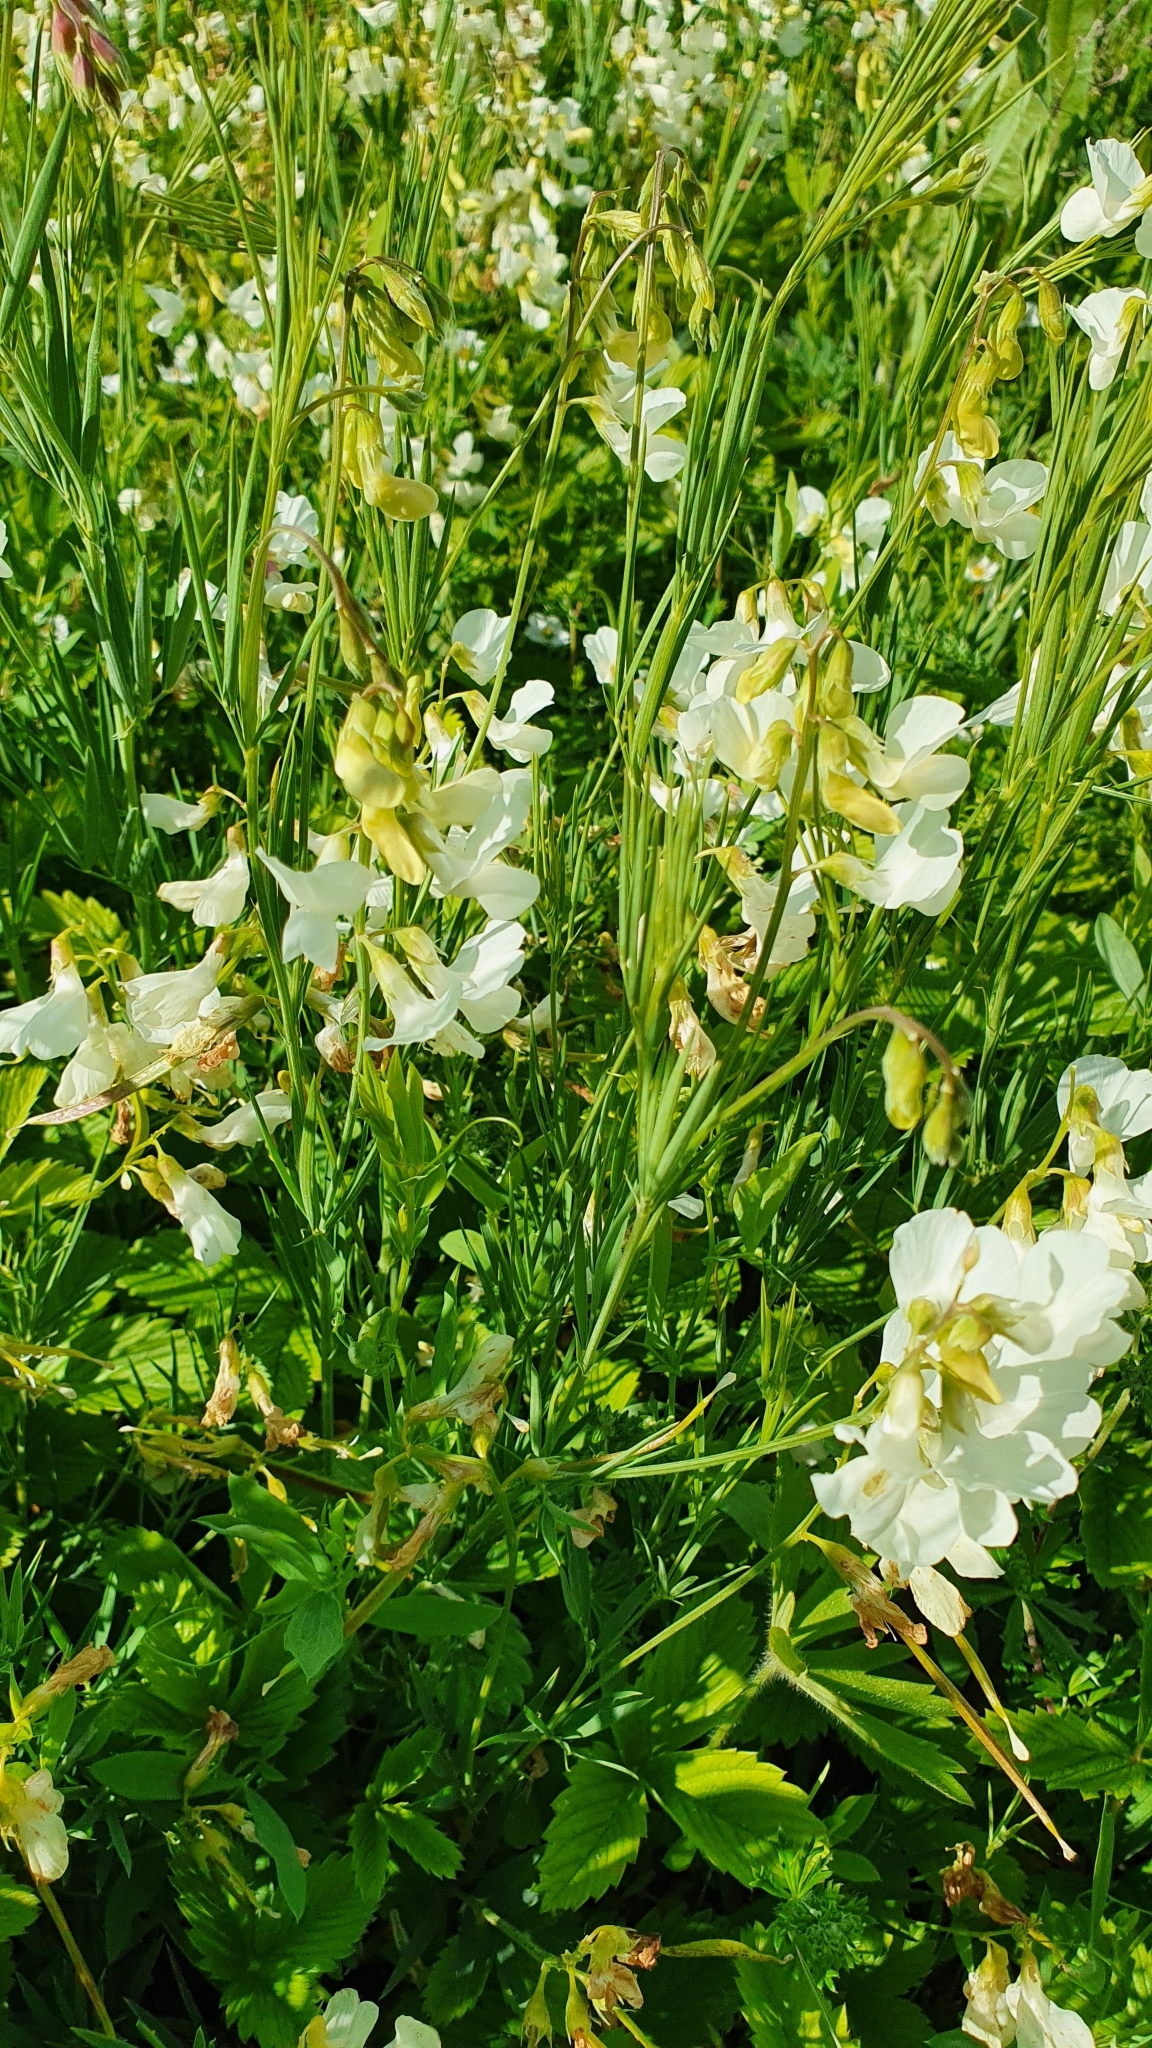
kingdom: Plantae
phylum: Tracheophyta
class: Magnoliopsida
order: Fabales
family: Fabaceae
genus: Lathyrus
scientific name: Lathyrus pallescens
